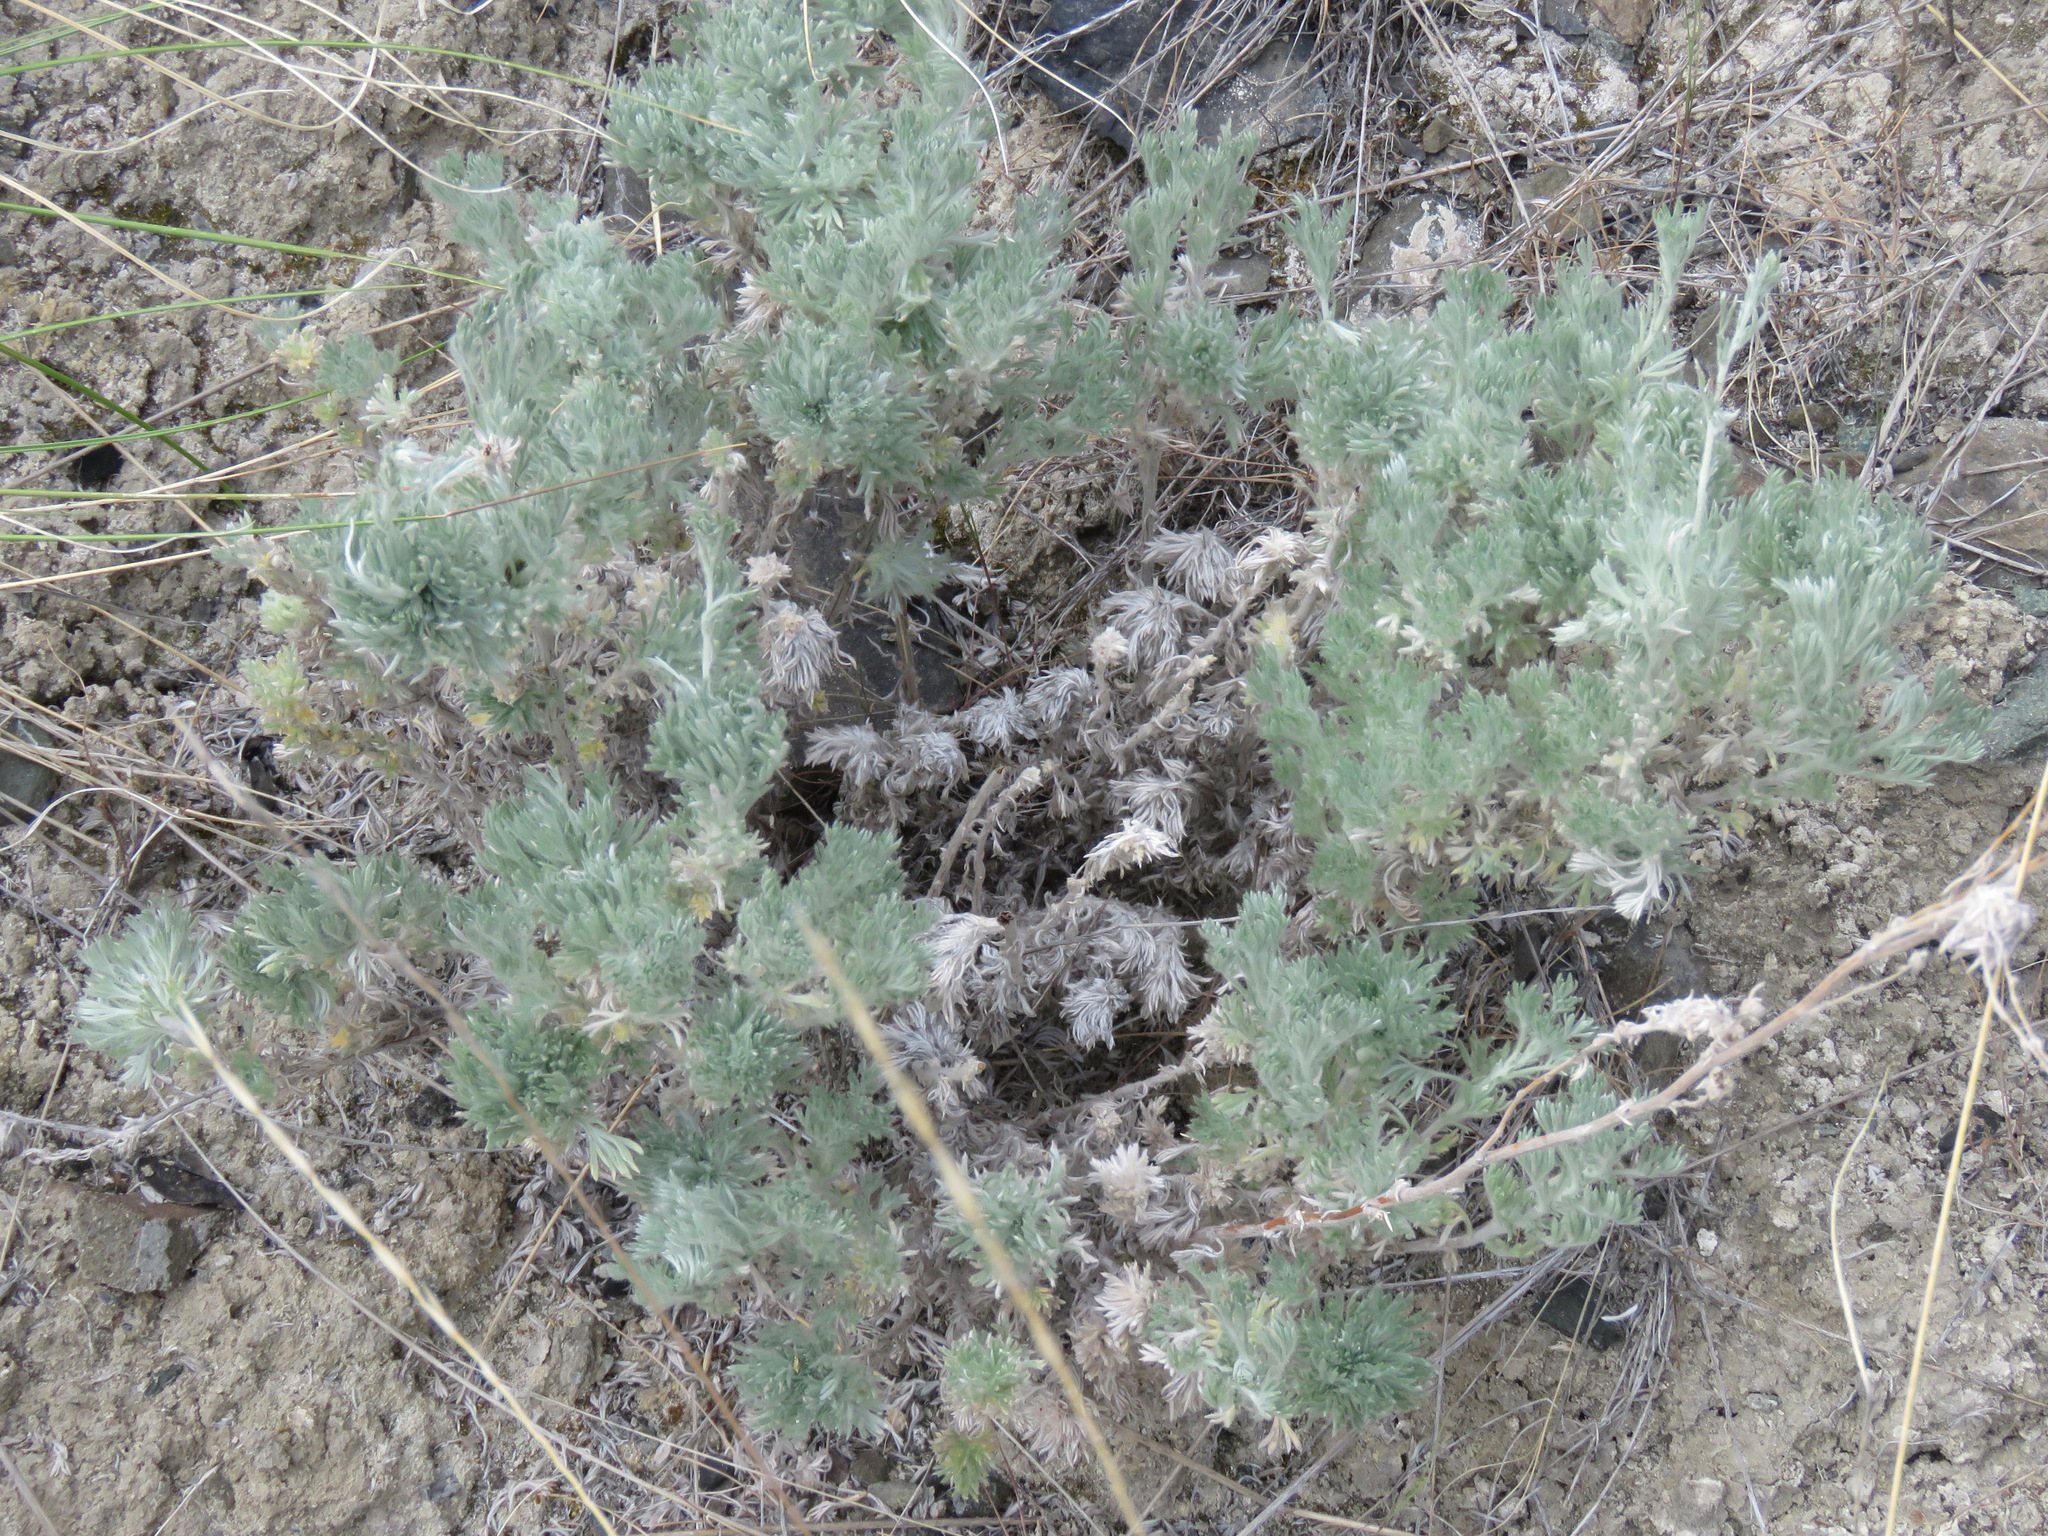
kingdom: Plantae
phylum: Tracheophyta
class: Magnoliopsida
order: Asterales
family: Asteraceae
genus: Artemisia
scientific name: Artemisia frigida
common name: Prairie sagewort
